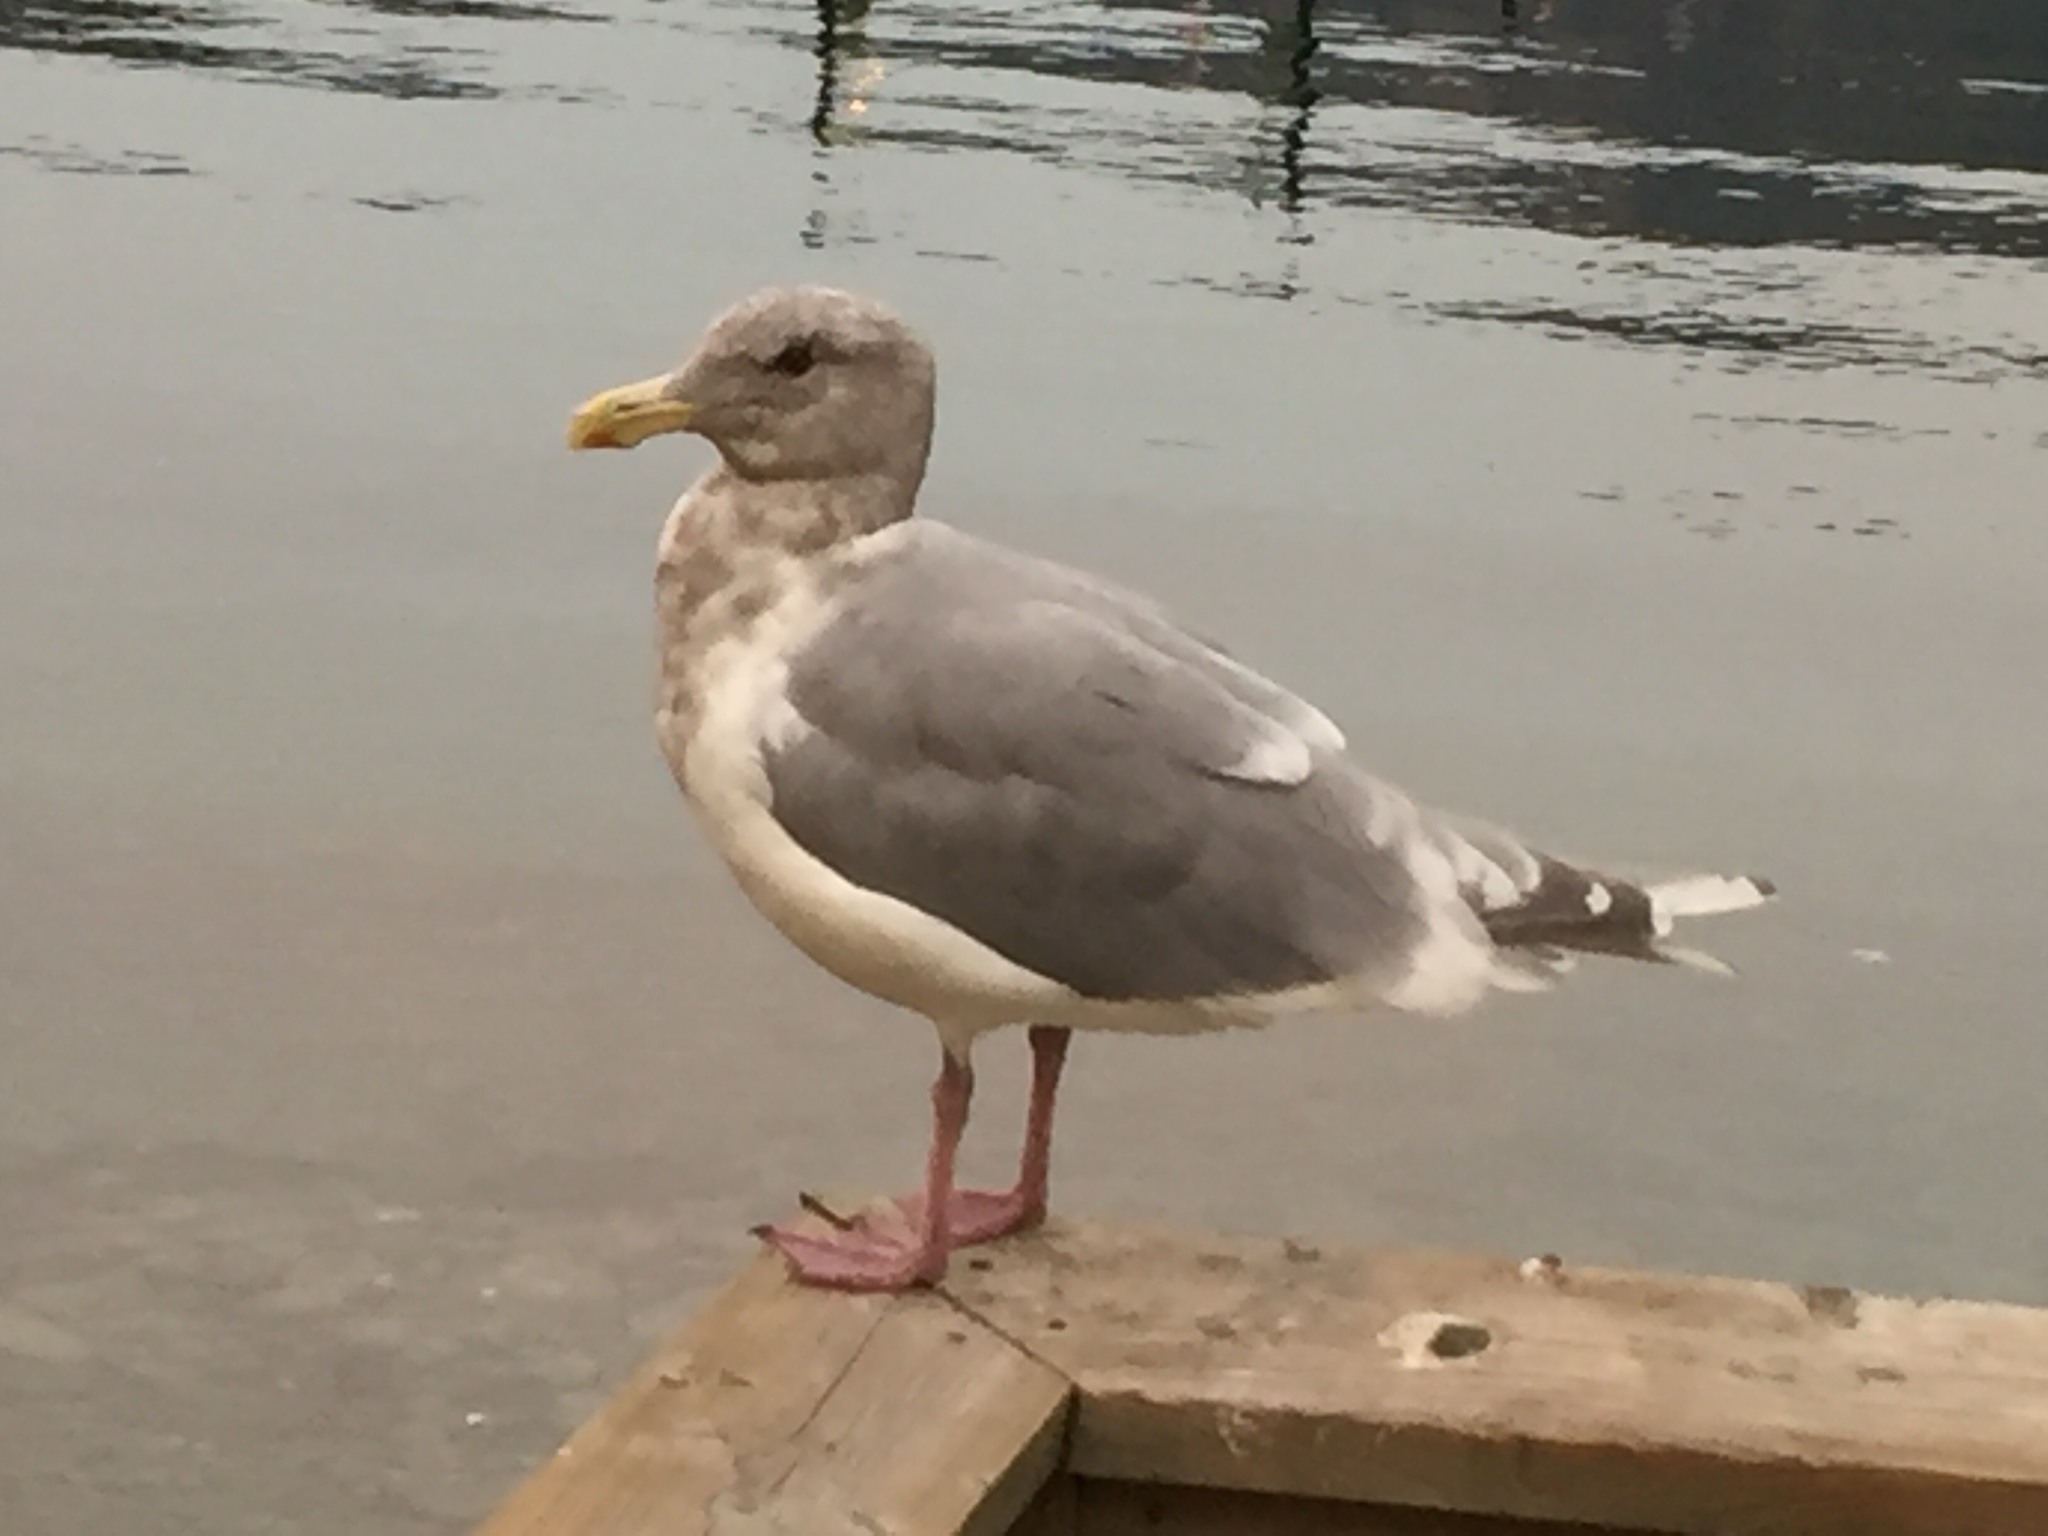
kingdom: Animalia
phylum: Chordata
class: Aves
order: Charadriiformes
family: Laridae
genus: Larus
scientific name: Larus glaucescens
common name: Glaucous-winged gull
